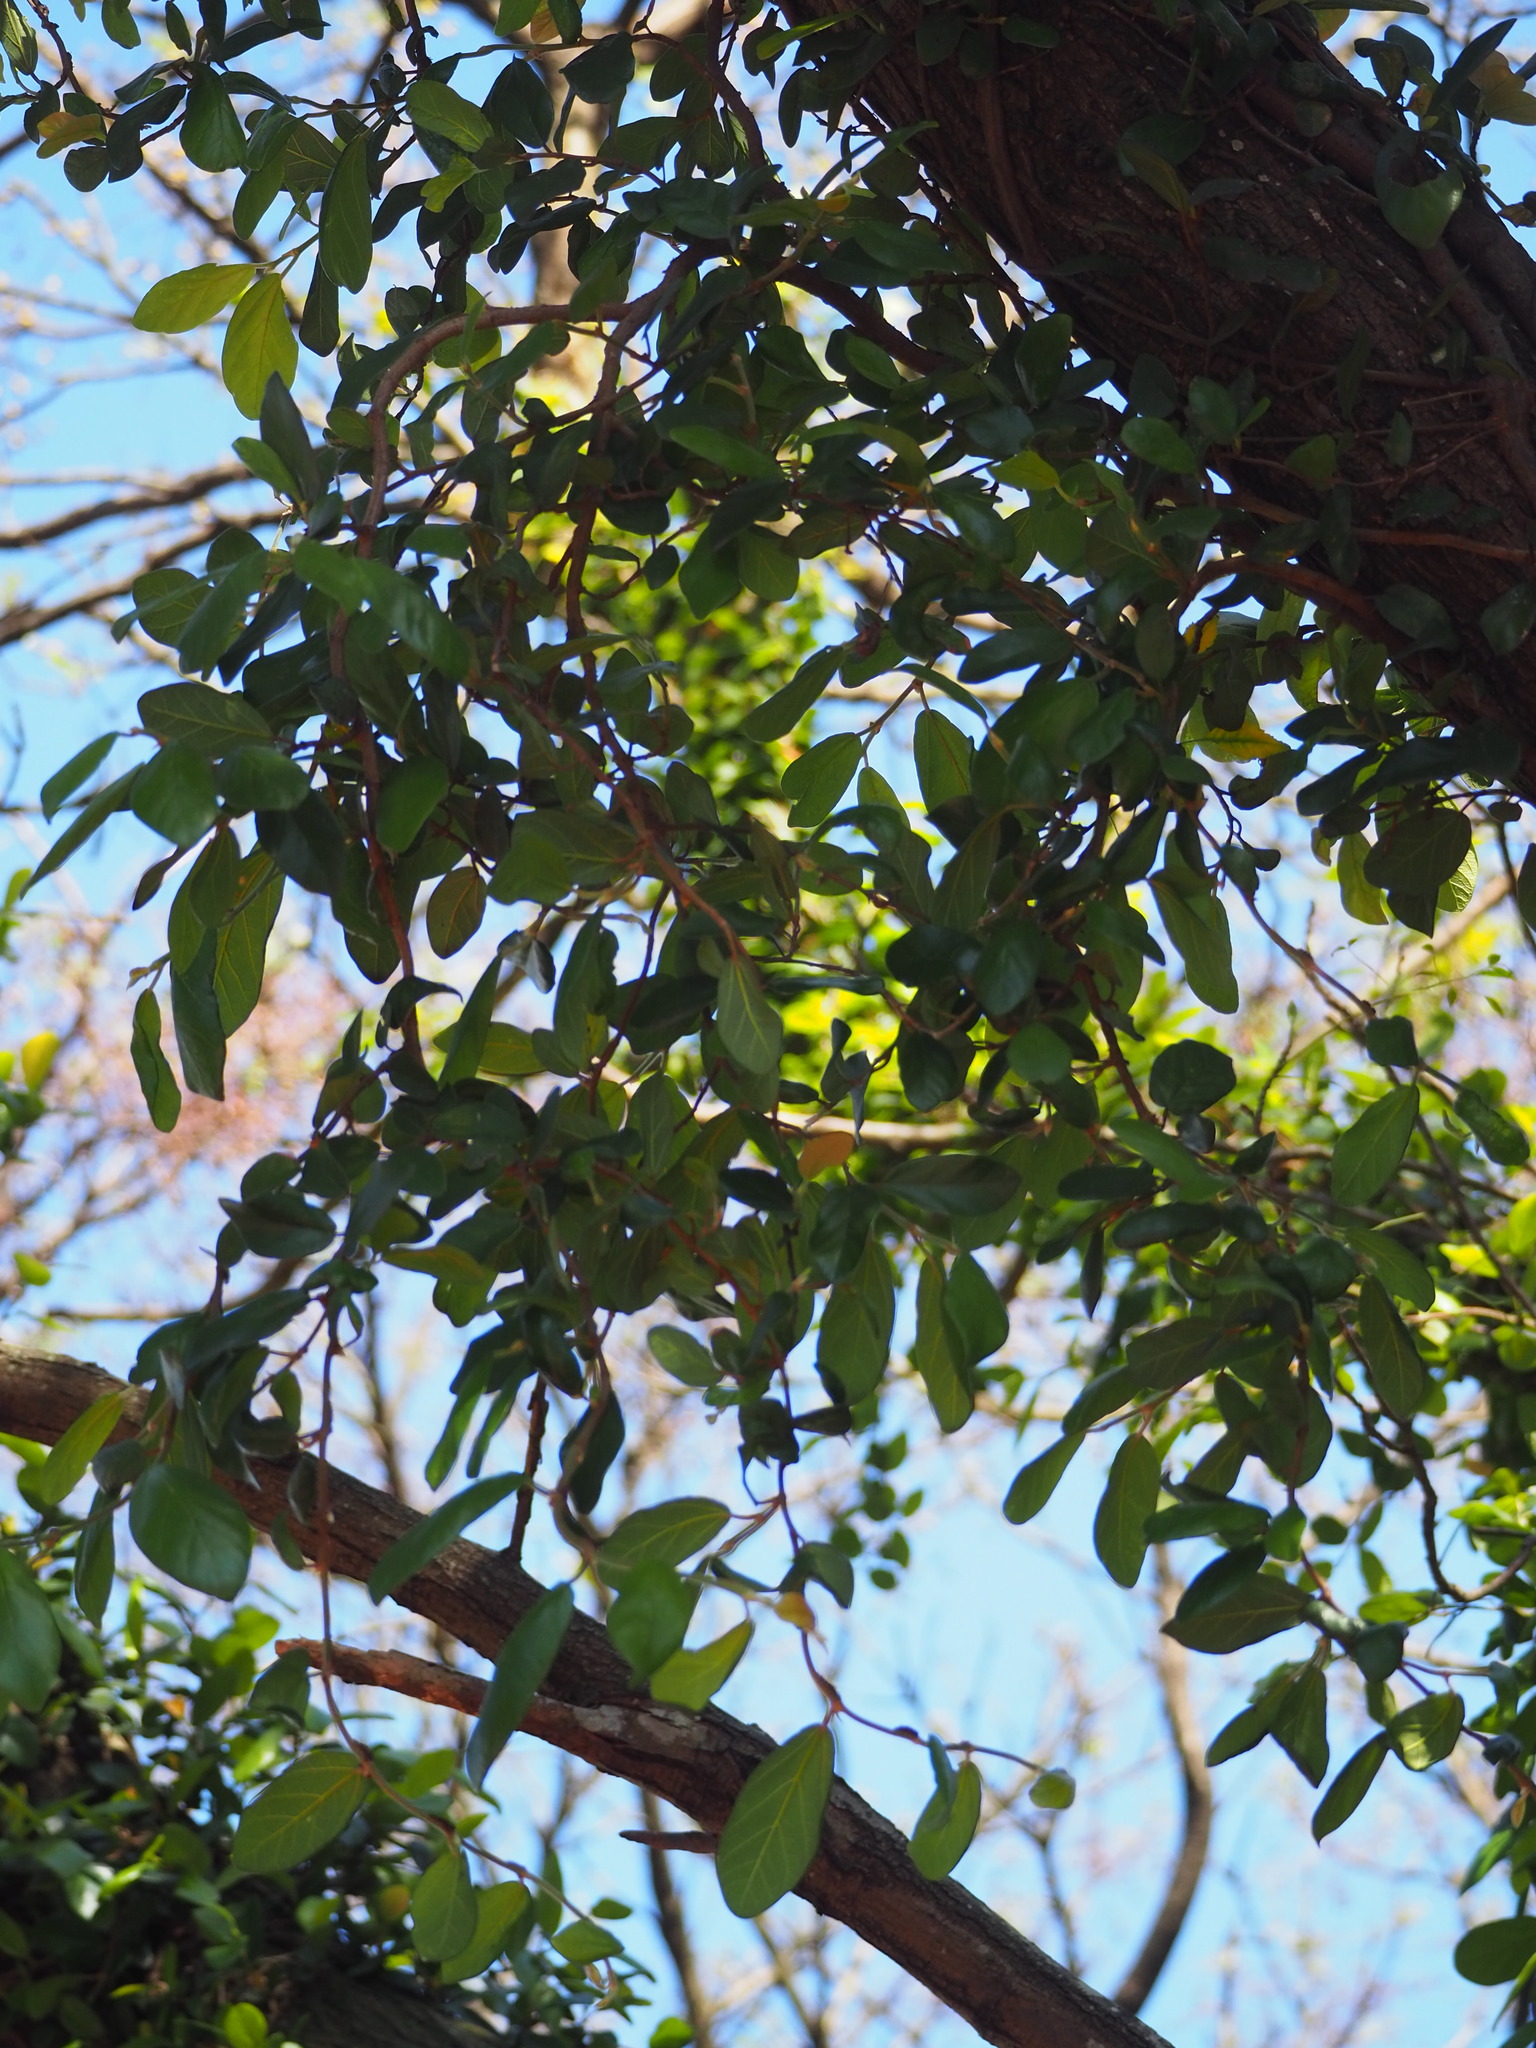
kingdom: Plantae
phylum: Tracheophyta
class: Magnoliopsida
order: Rosales
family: Moraceae
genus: Ficus
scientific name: Ficus pumila
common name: Climbingfig
